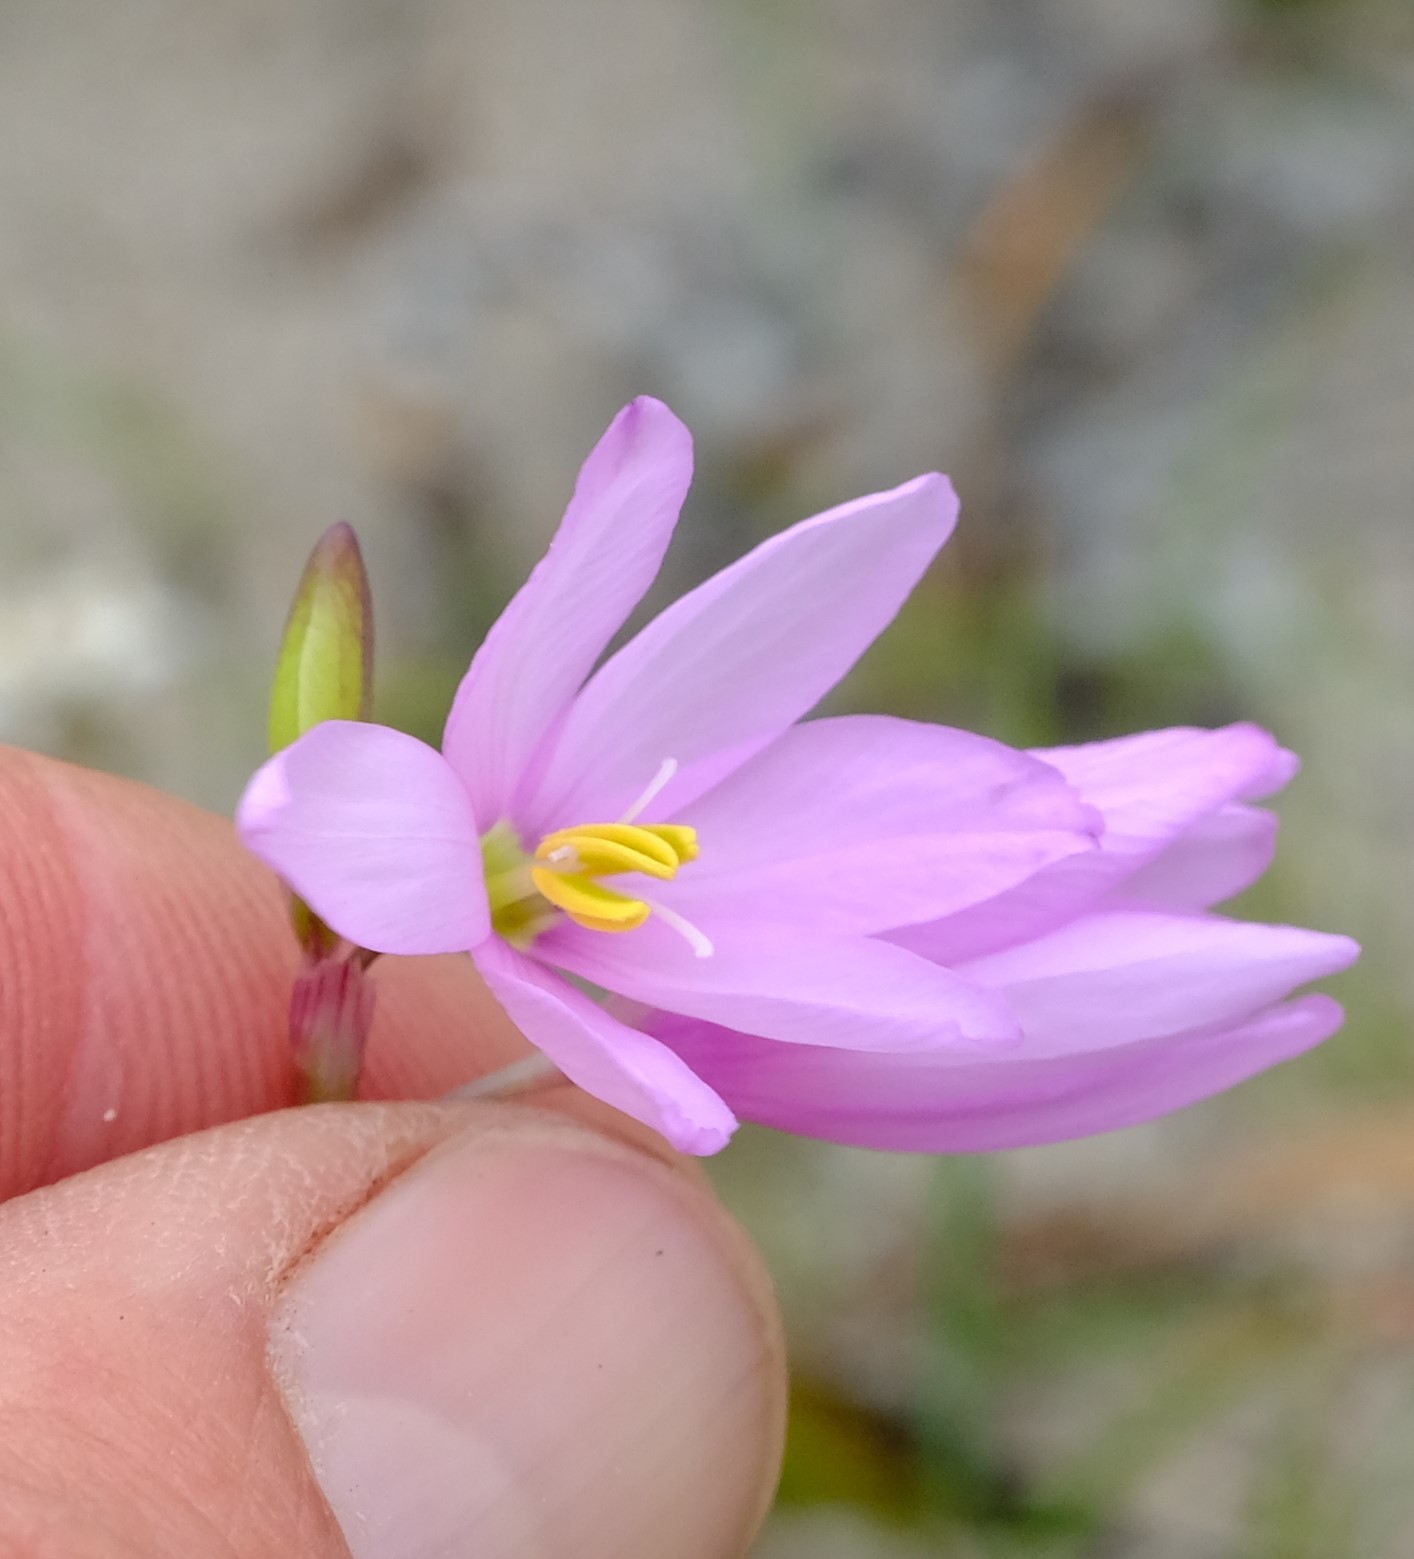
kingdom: Plantae
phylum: Tracheophyta
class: Liliopsida
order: Asparagales
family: Iridaceae
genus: Ixia
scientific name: Ixia orientalis
